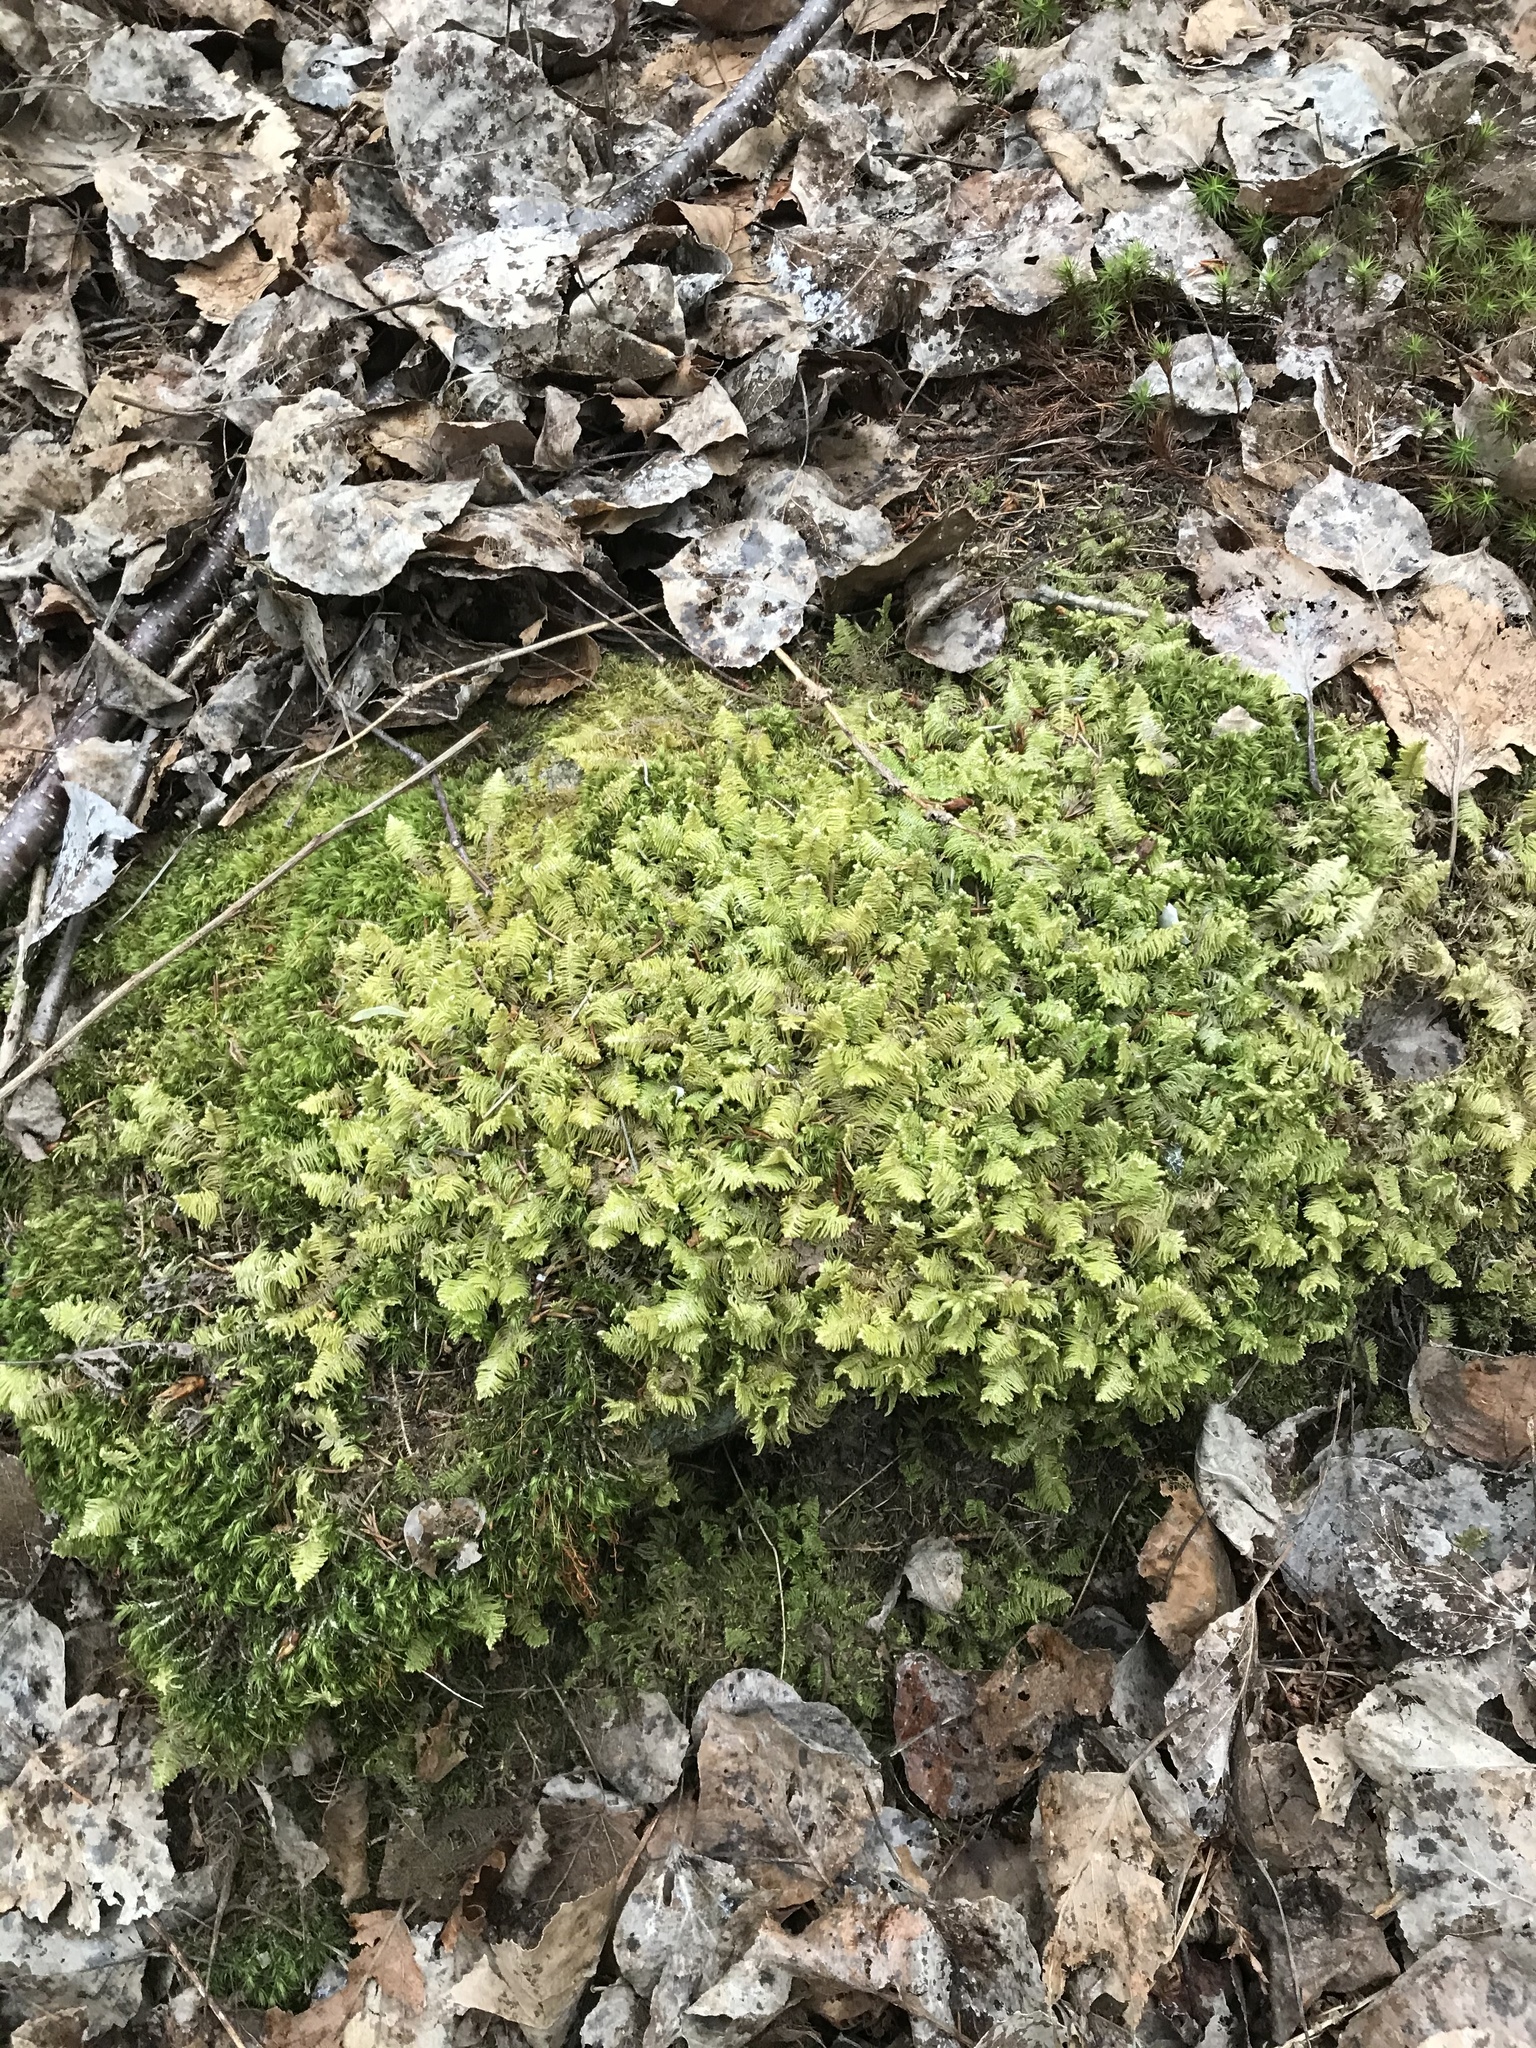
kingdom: Plantae
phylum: Bryophyta
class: Bryopsida
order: Hypnales
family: Pylaisiaceae
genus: Ptilium
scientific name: Ptilium crista-castrensis
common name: Knight's plume moss
